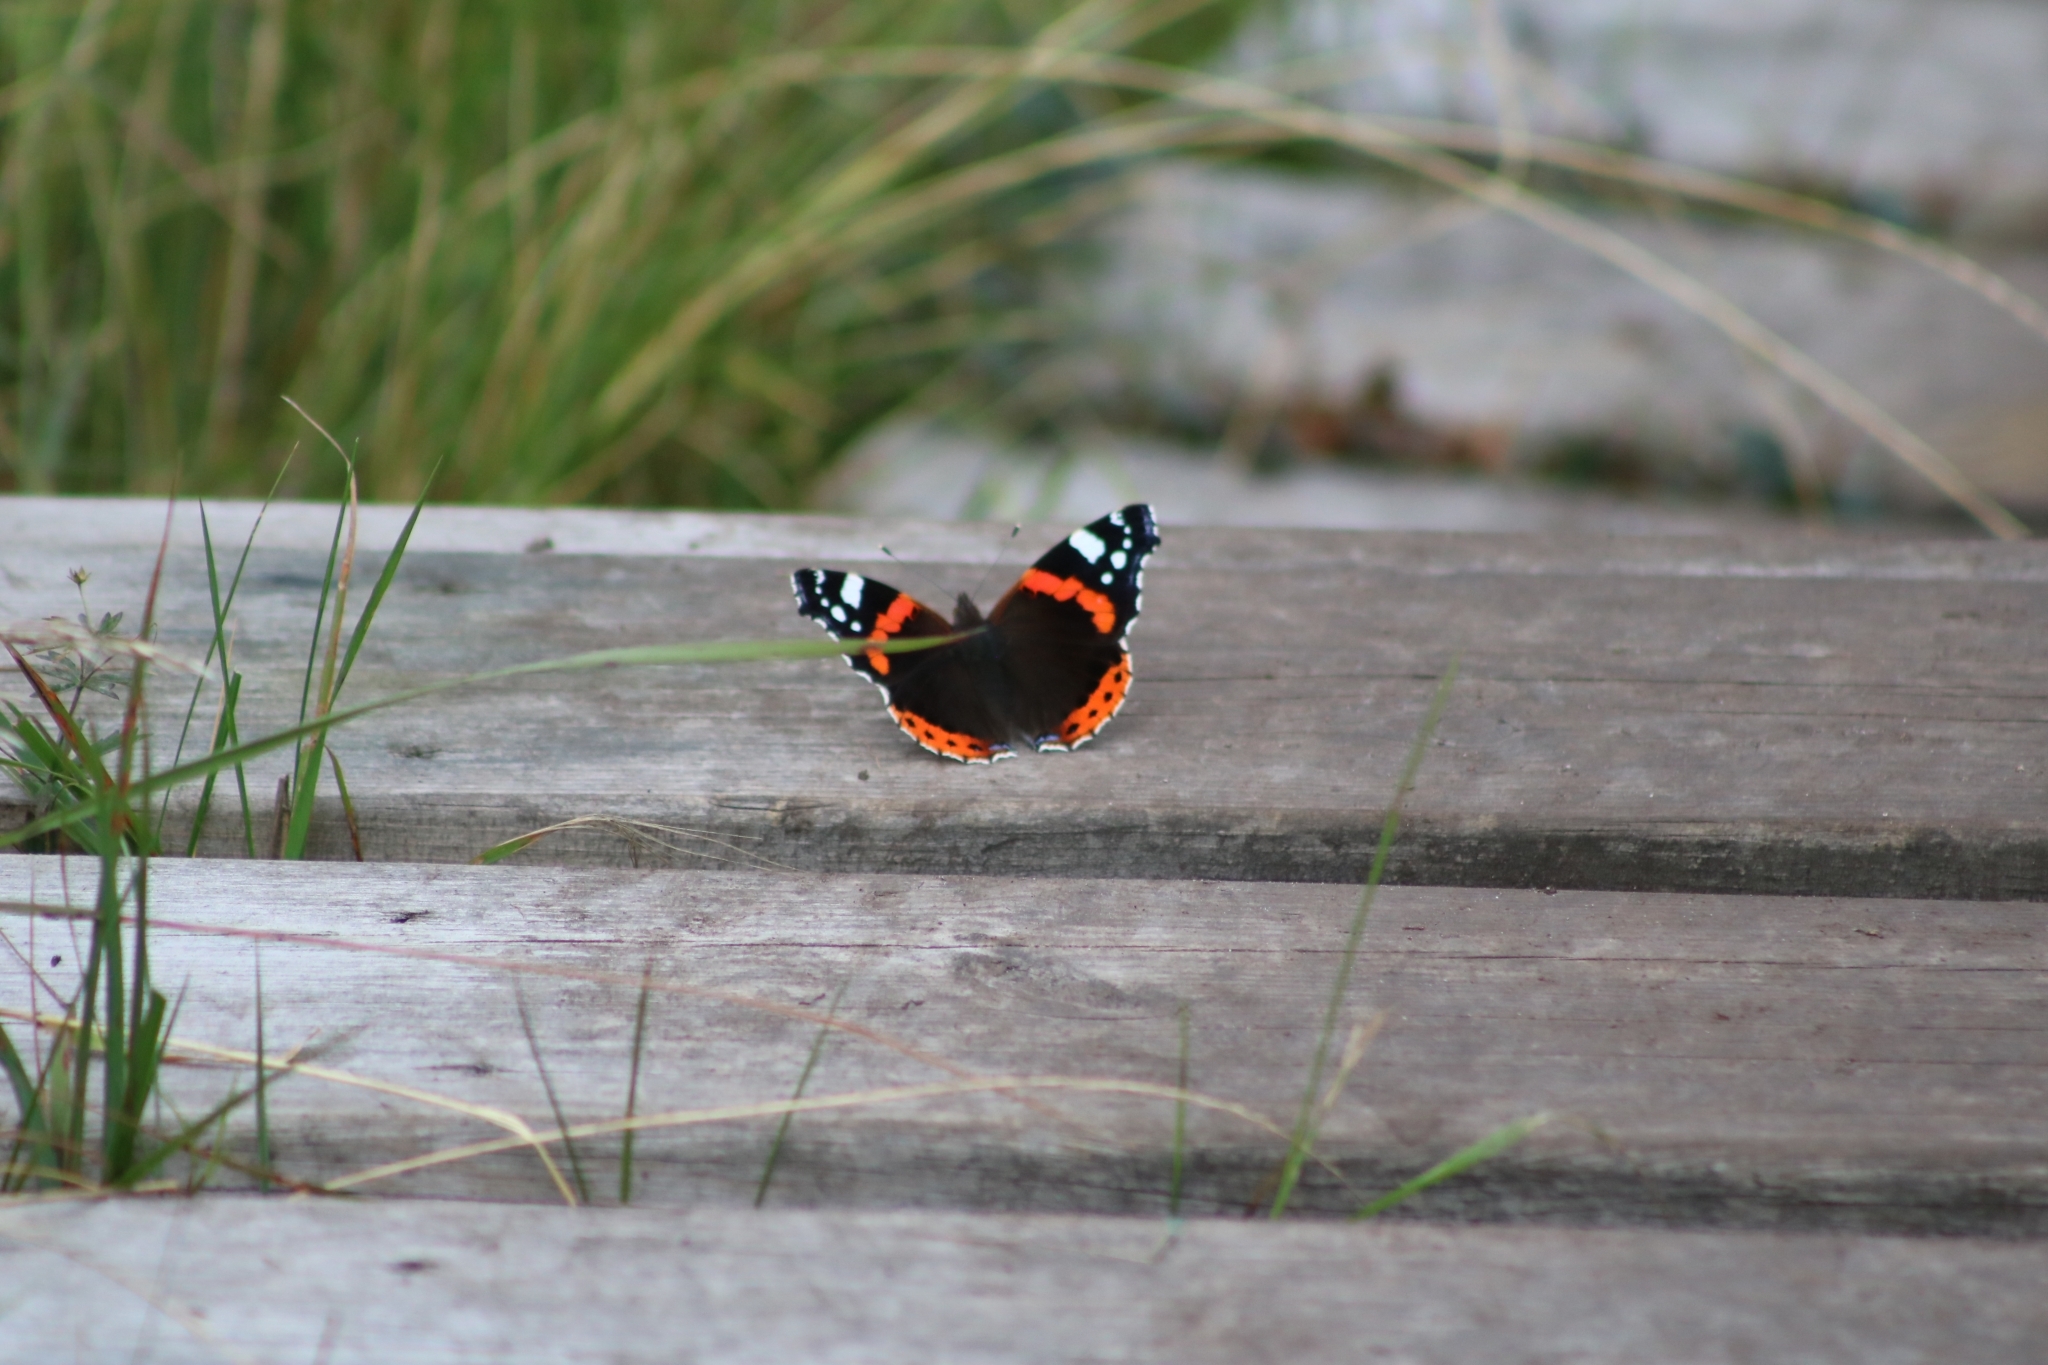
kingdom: Animalia
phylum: Arthropoda
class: Insecta
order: Lepidoptera
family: Nymphalidae
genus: Vanessa
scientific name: Vanessa atalanta
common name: Red admiral
